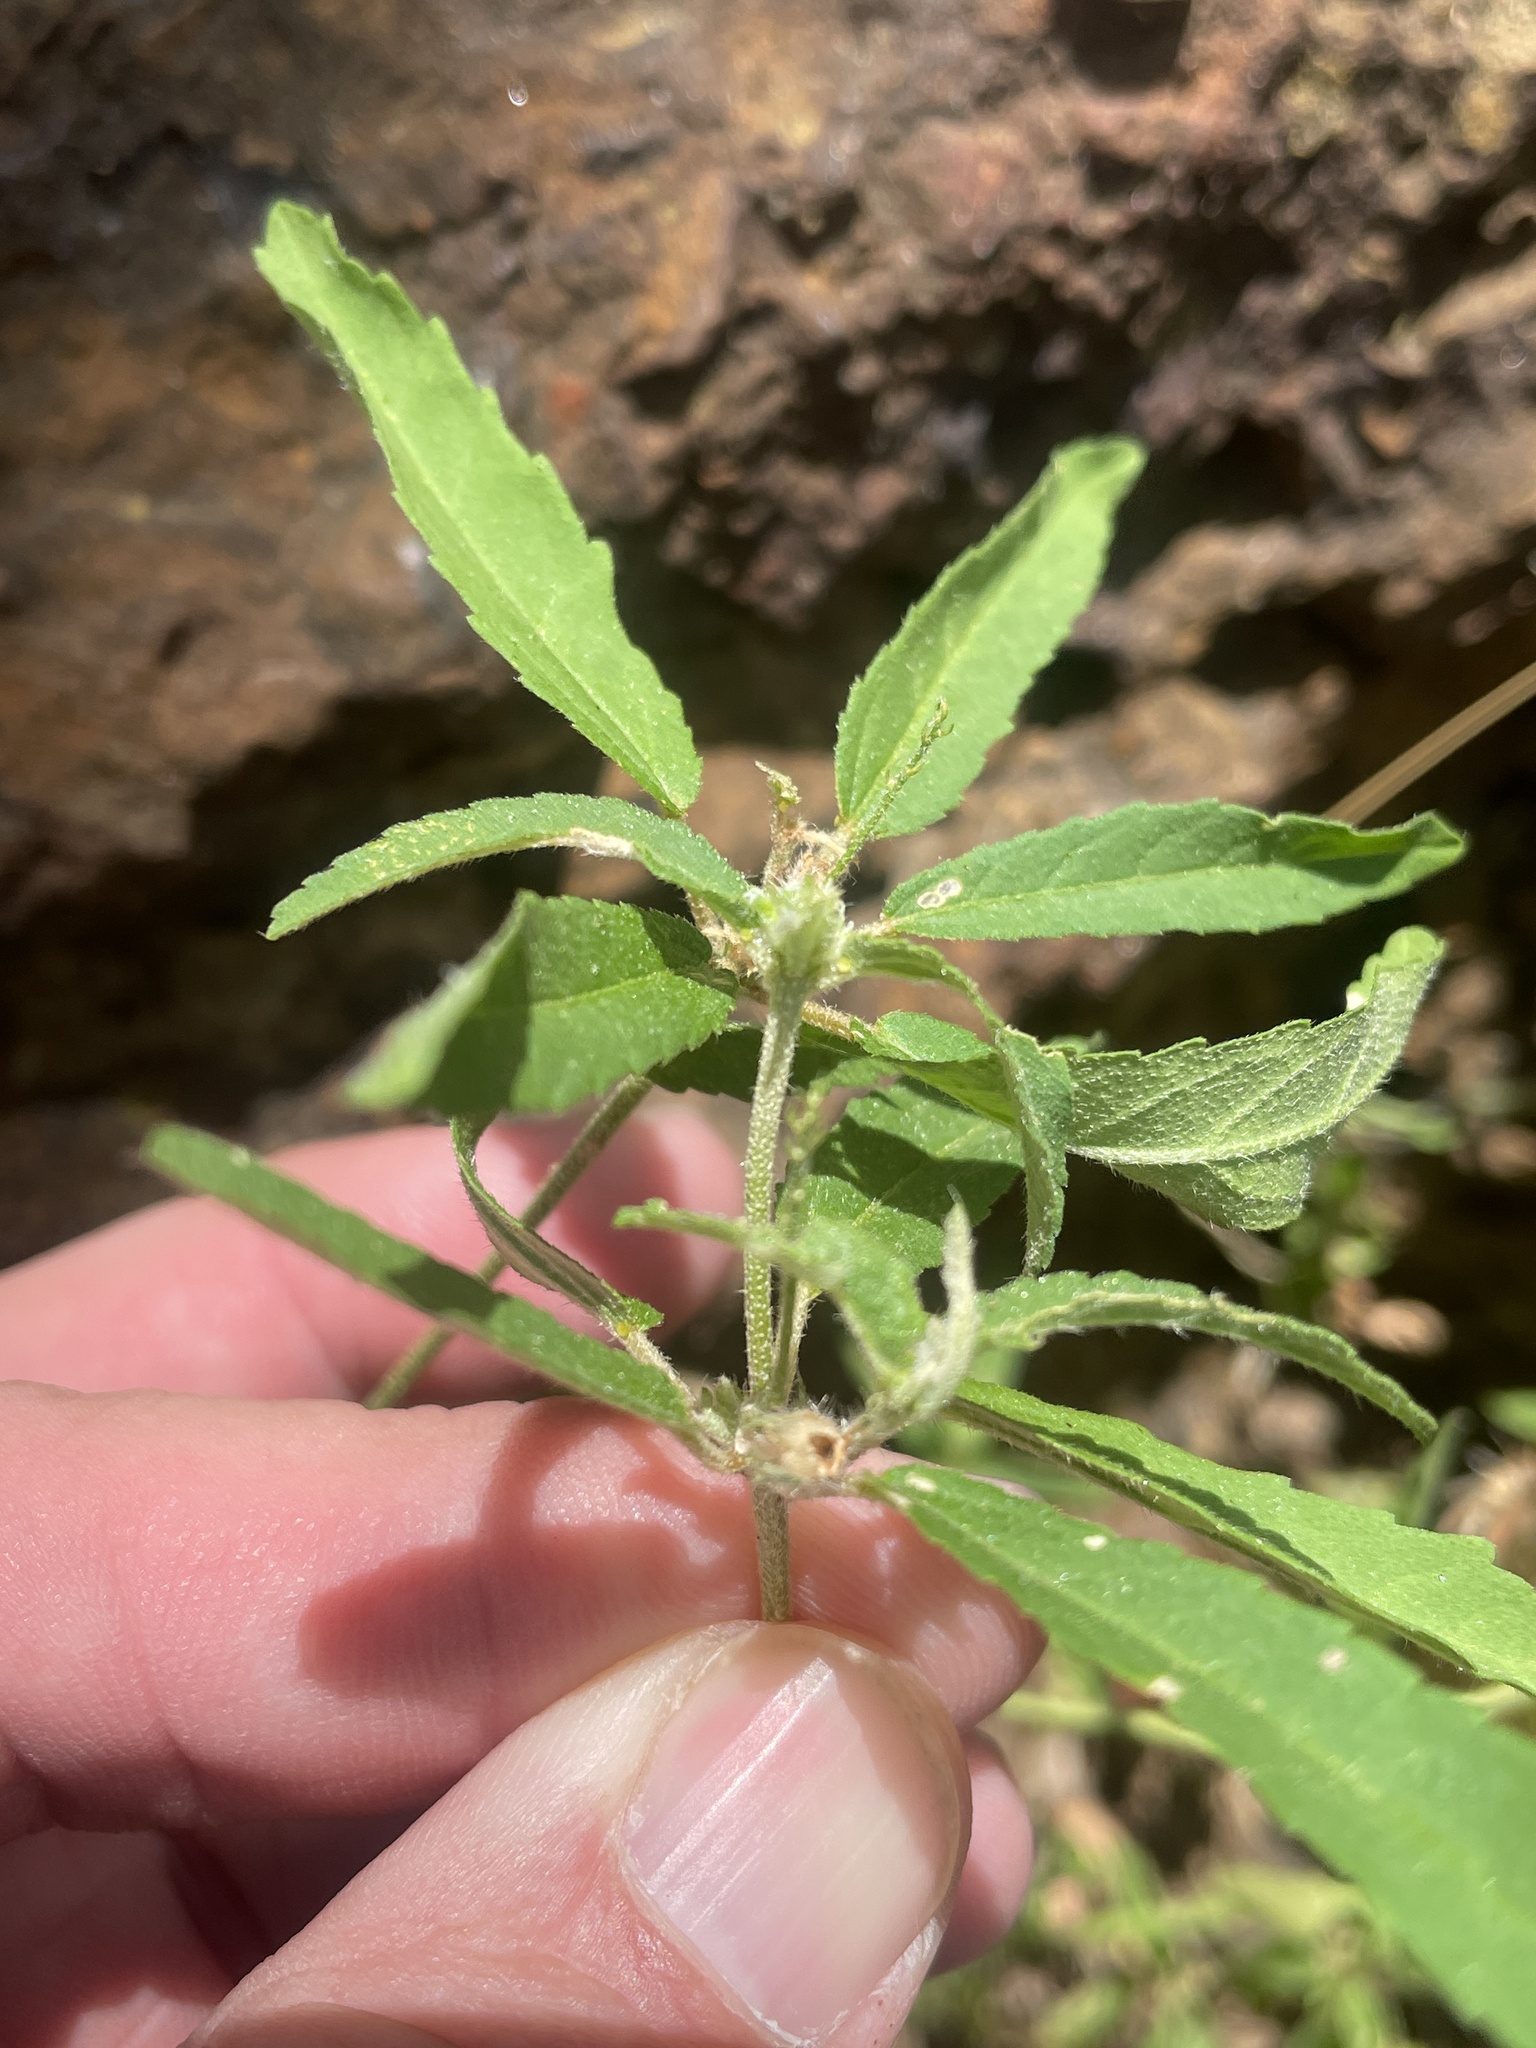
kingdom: Plantae
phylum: Tracheophyta
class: Magnoliopsida
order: Malpighiales
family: Euphorbiaceae
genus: Croton
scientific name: Croton glandulosus
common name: Tropic croton
